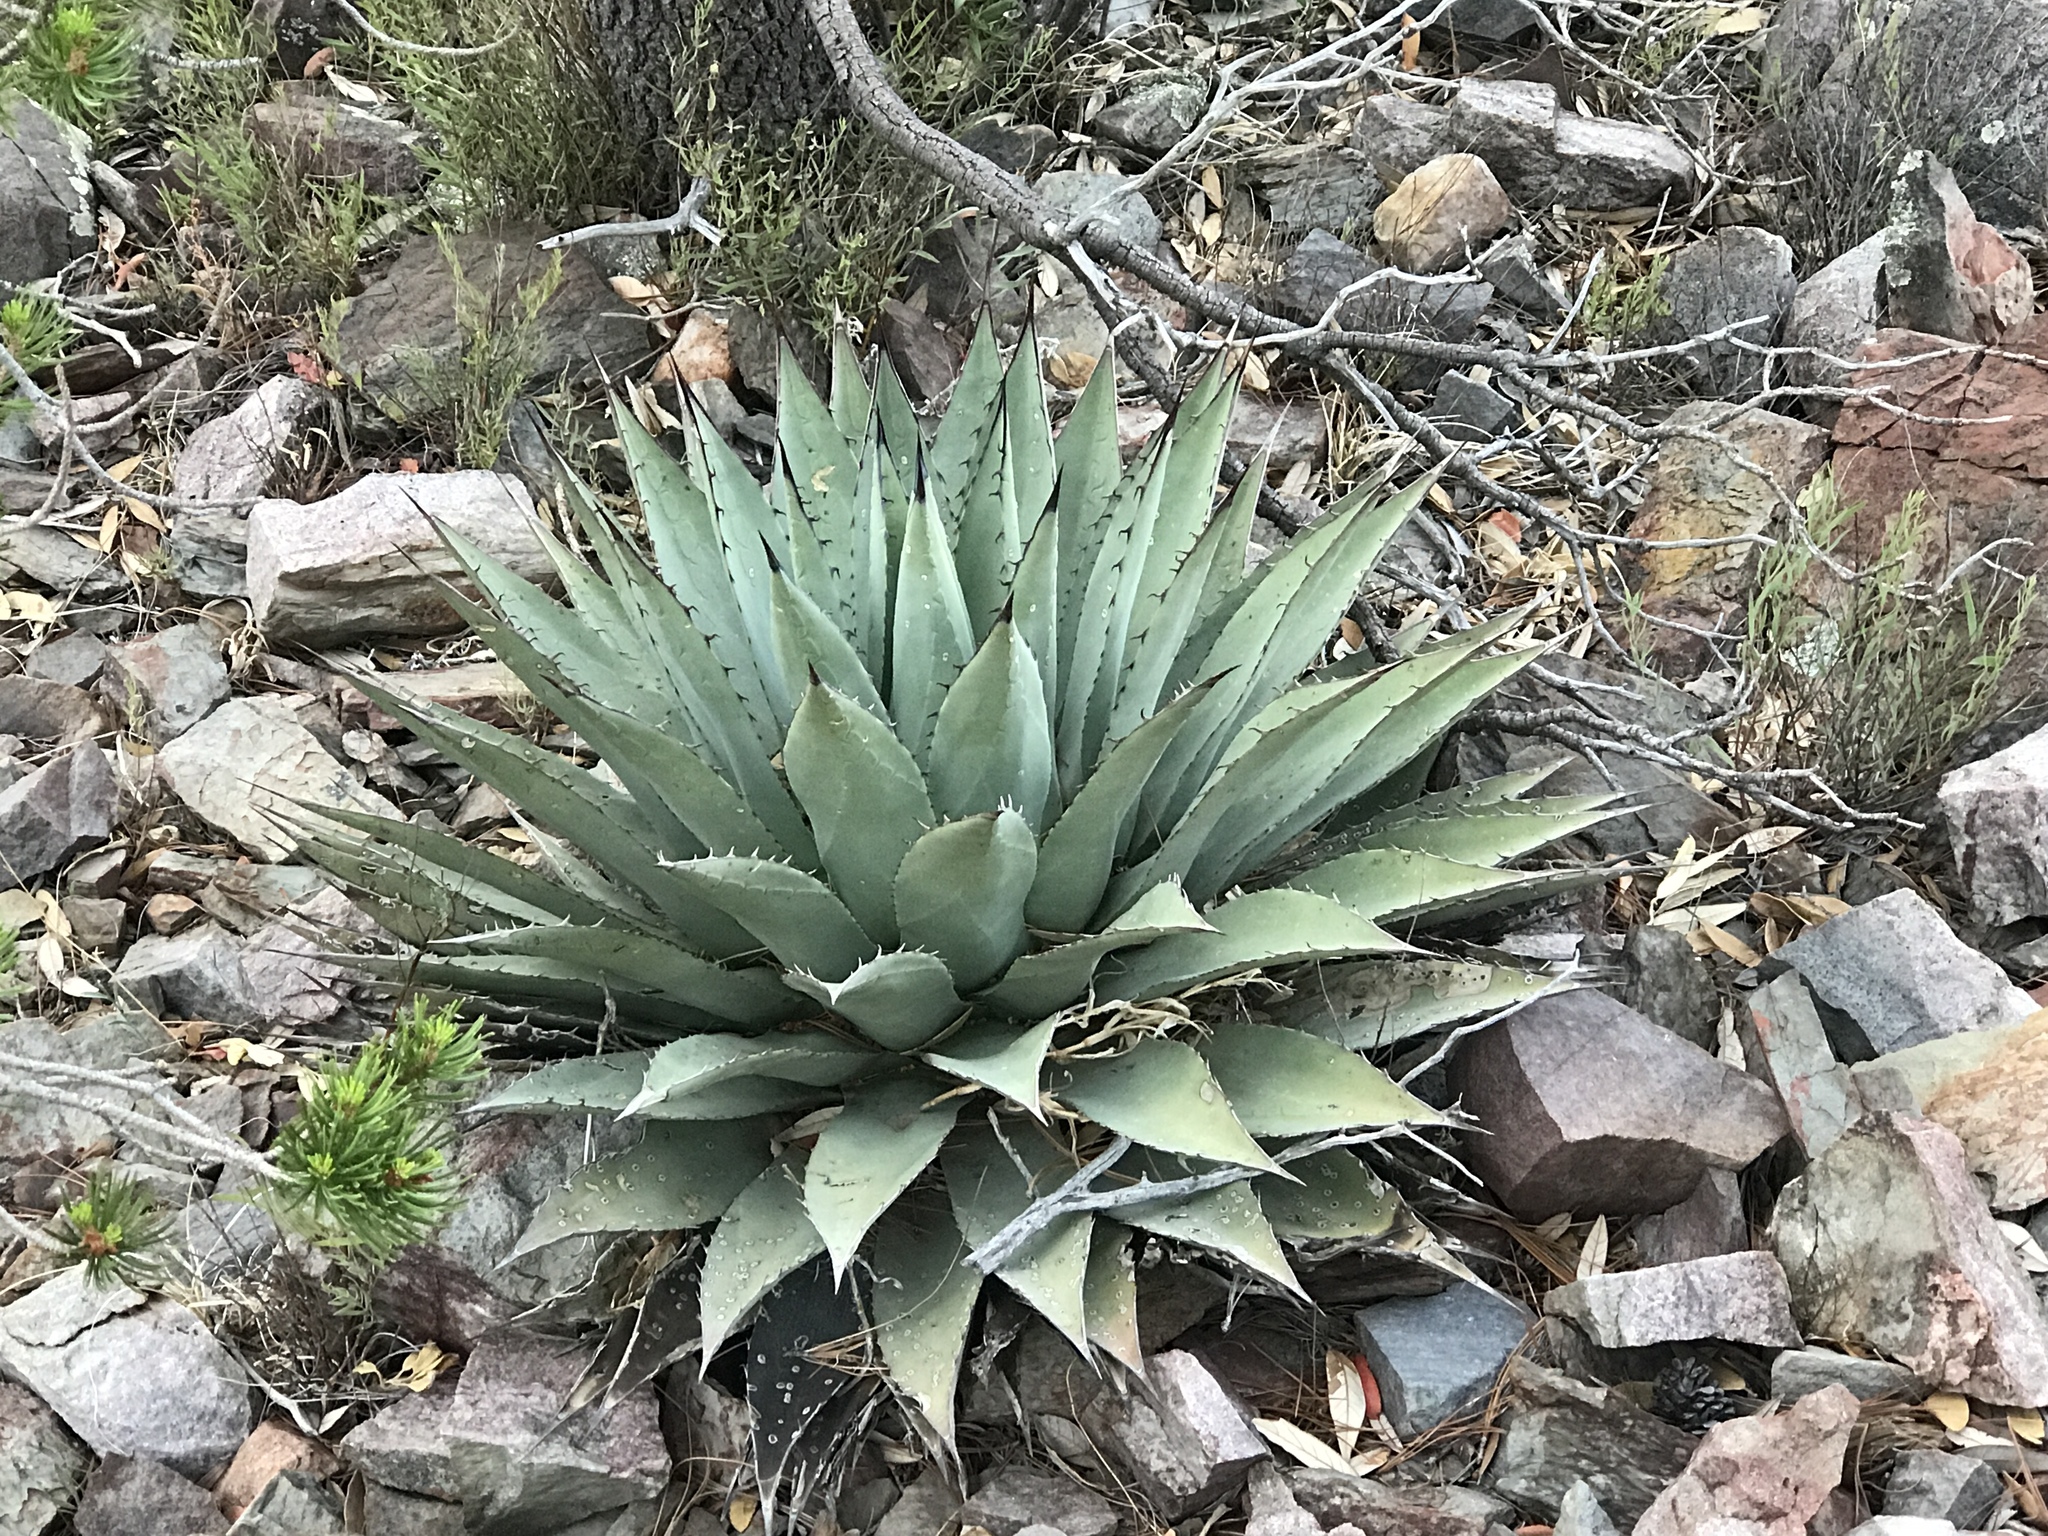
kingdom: Plantae
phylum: Tracheophyta
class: Liliopsida
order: Asparagales
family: Asparagaceae
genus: Agave
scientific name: Agave parryi
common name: Parry's agave
